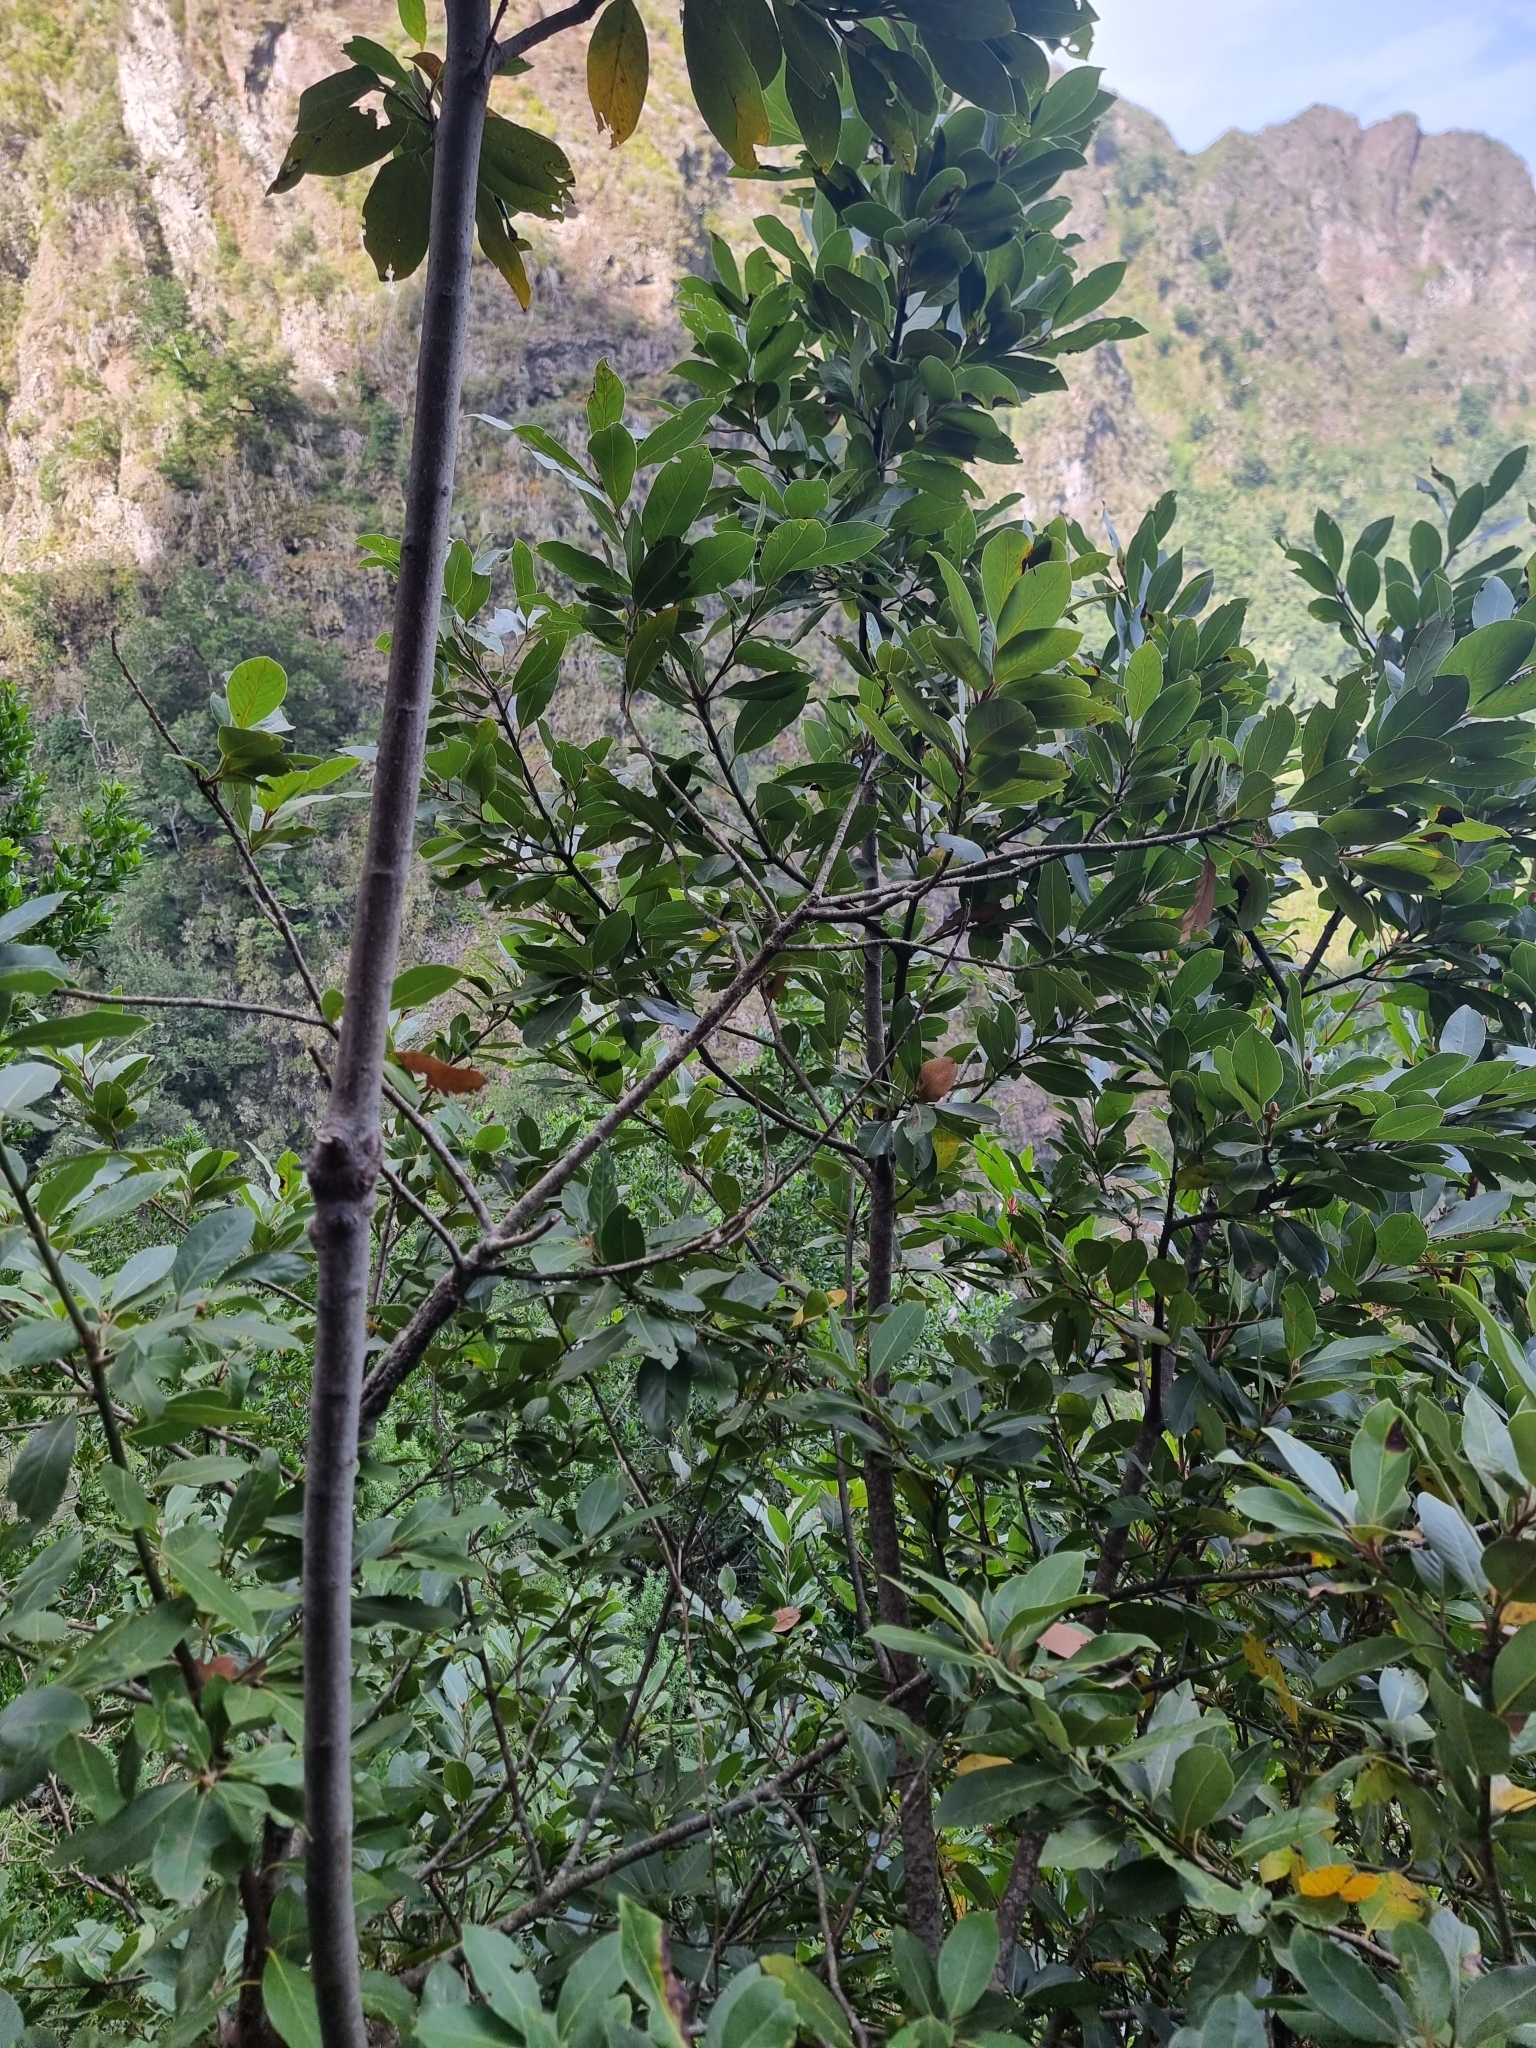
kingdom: Plantae
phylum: Tracheophyta
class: Magnoliopsida
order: Laurales
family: Lauraceae
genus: Laurus
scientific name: Laurus novocanariensis
